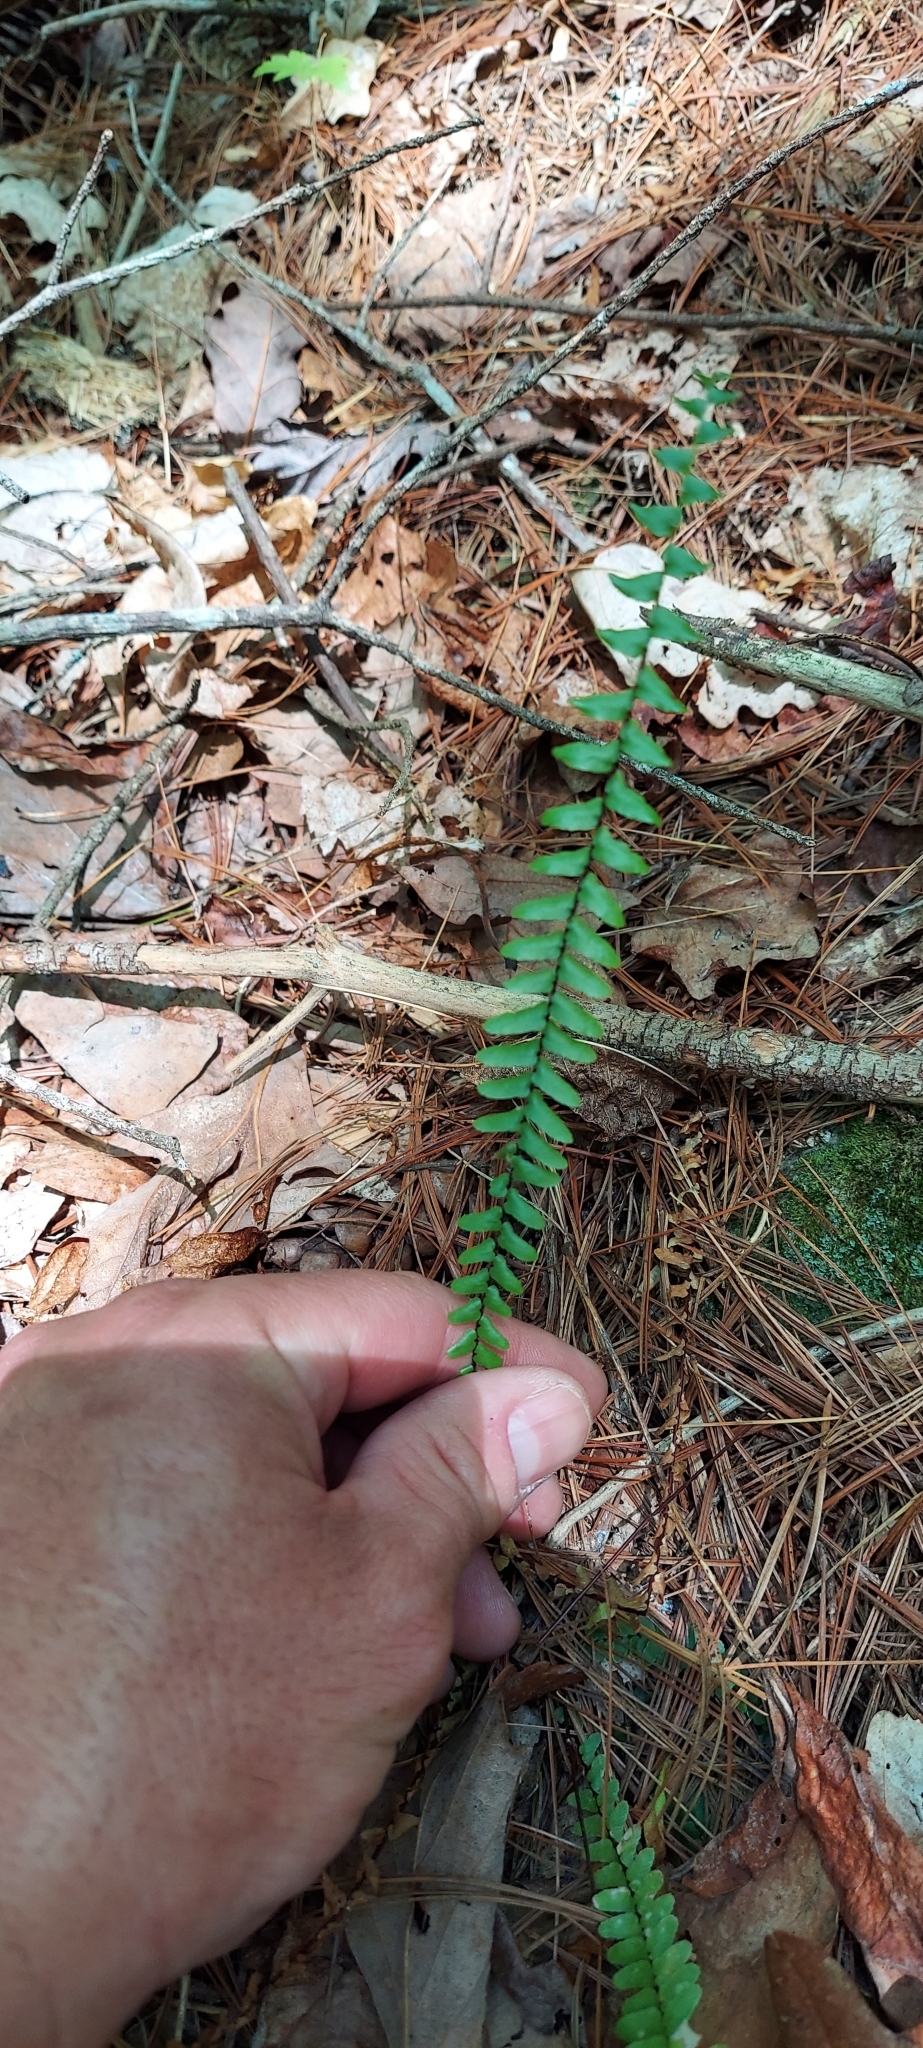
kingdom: Plantae
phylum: Tracheophyta
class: Polypodiopsida
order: Polypodiales
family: Aspleniaceae
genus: Asplenium
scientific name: Asplenium platyneuron
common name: Ebony spleenwort
